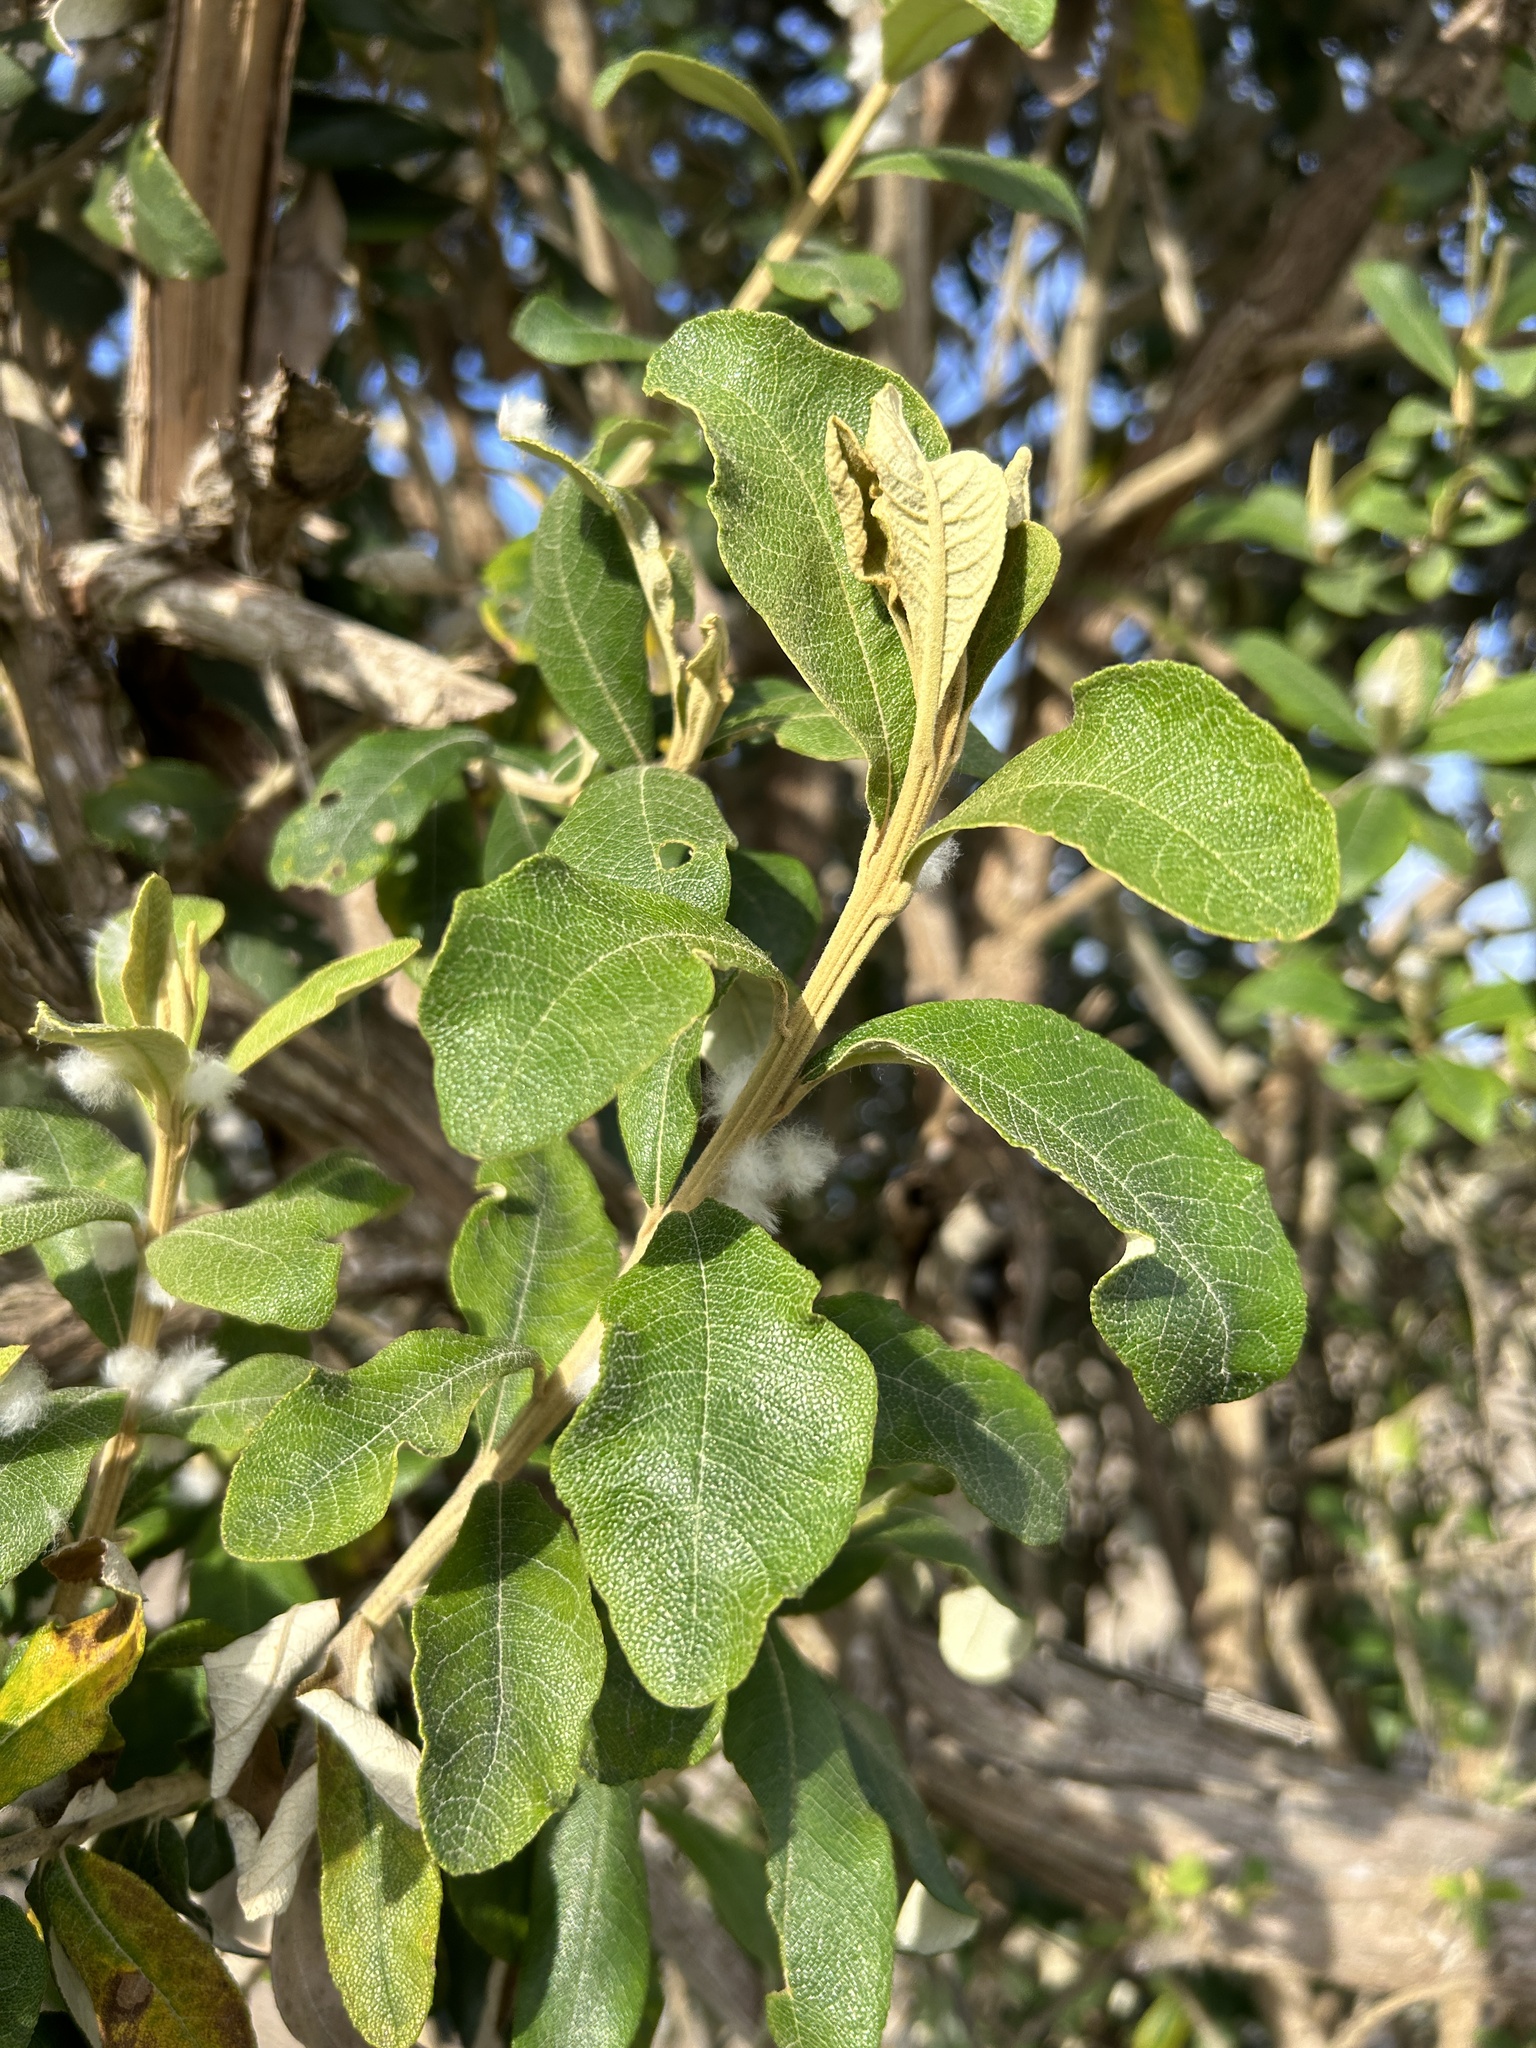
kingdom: Plantae
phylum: Tracheophyta
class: Magnoliopsida
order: Asterales
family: Asteraceae
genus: Tarchonanthus
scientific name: Tarchonanthus littoralis
